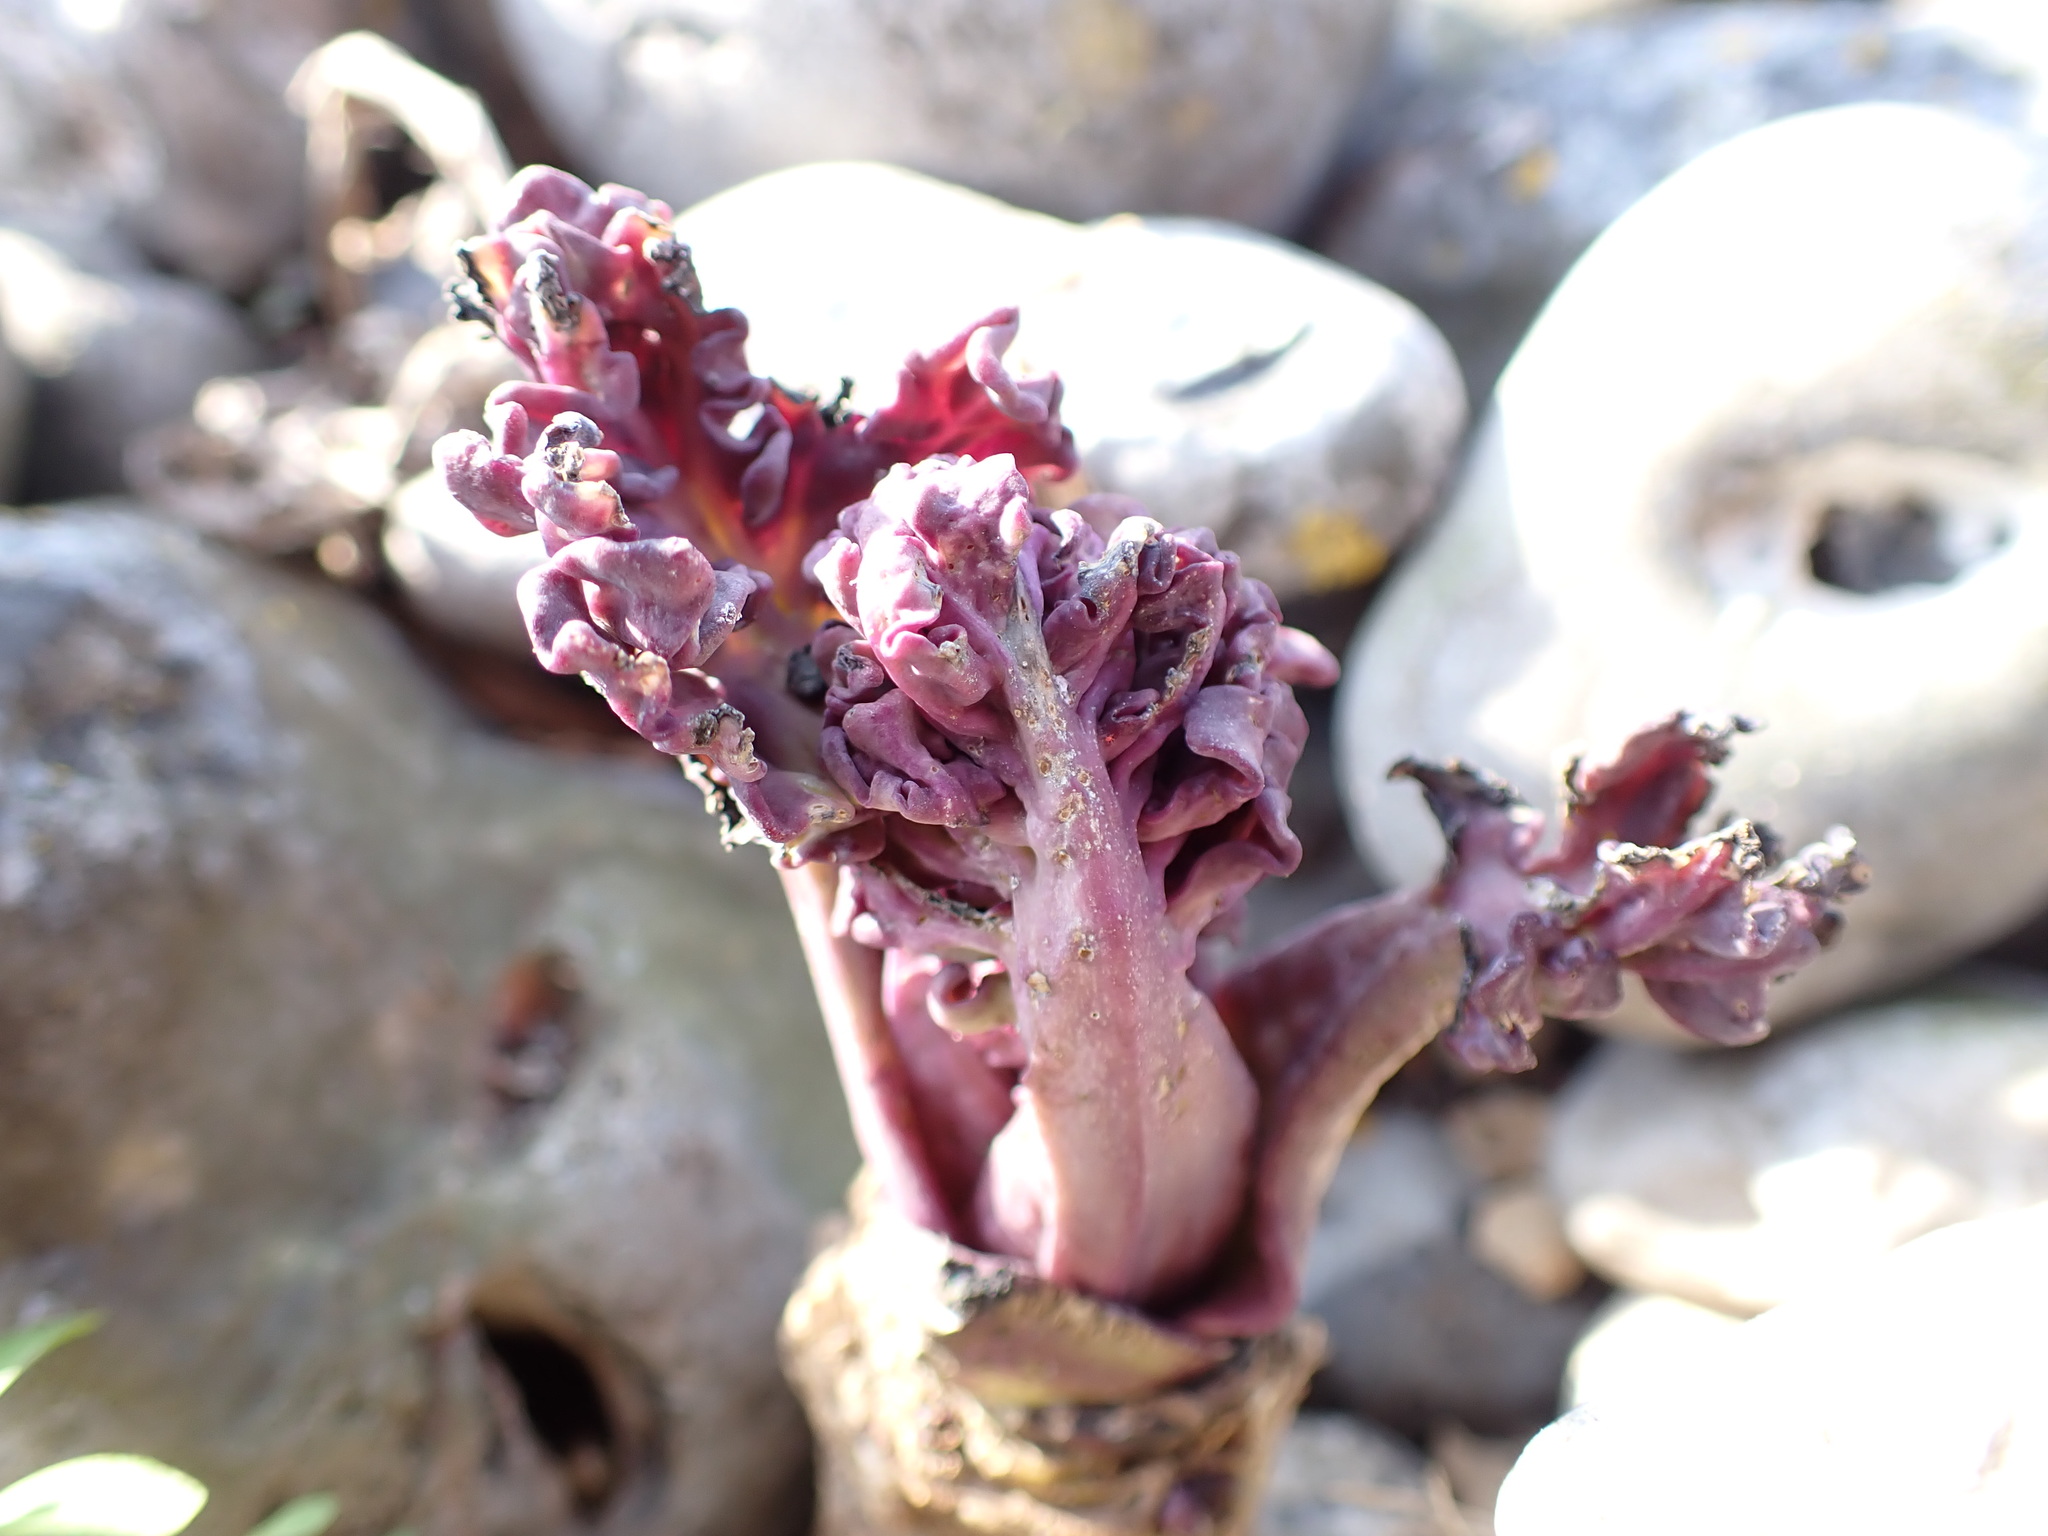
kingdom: Plantae
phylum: Tracheophyta
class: Magnoliopsida
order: Brassicales
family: Brassicaceae
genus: Crambe
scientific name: Crambe maritima
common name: Sea-kale
